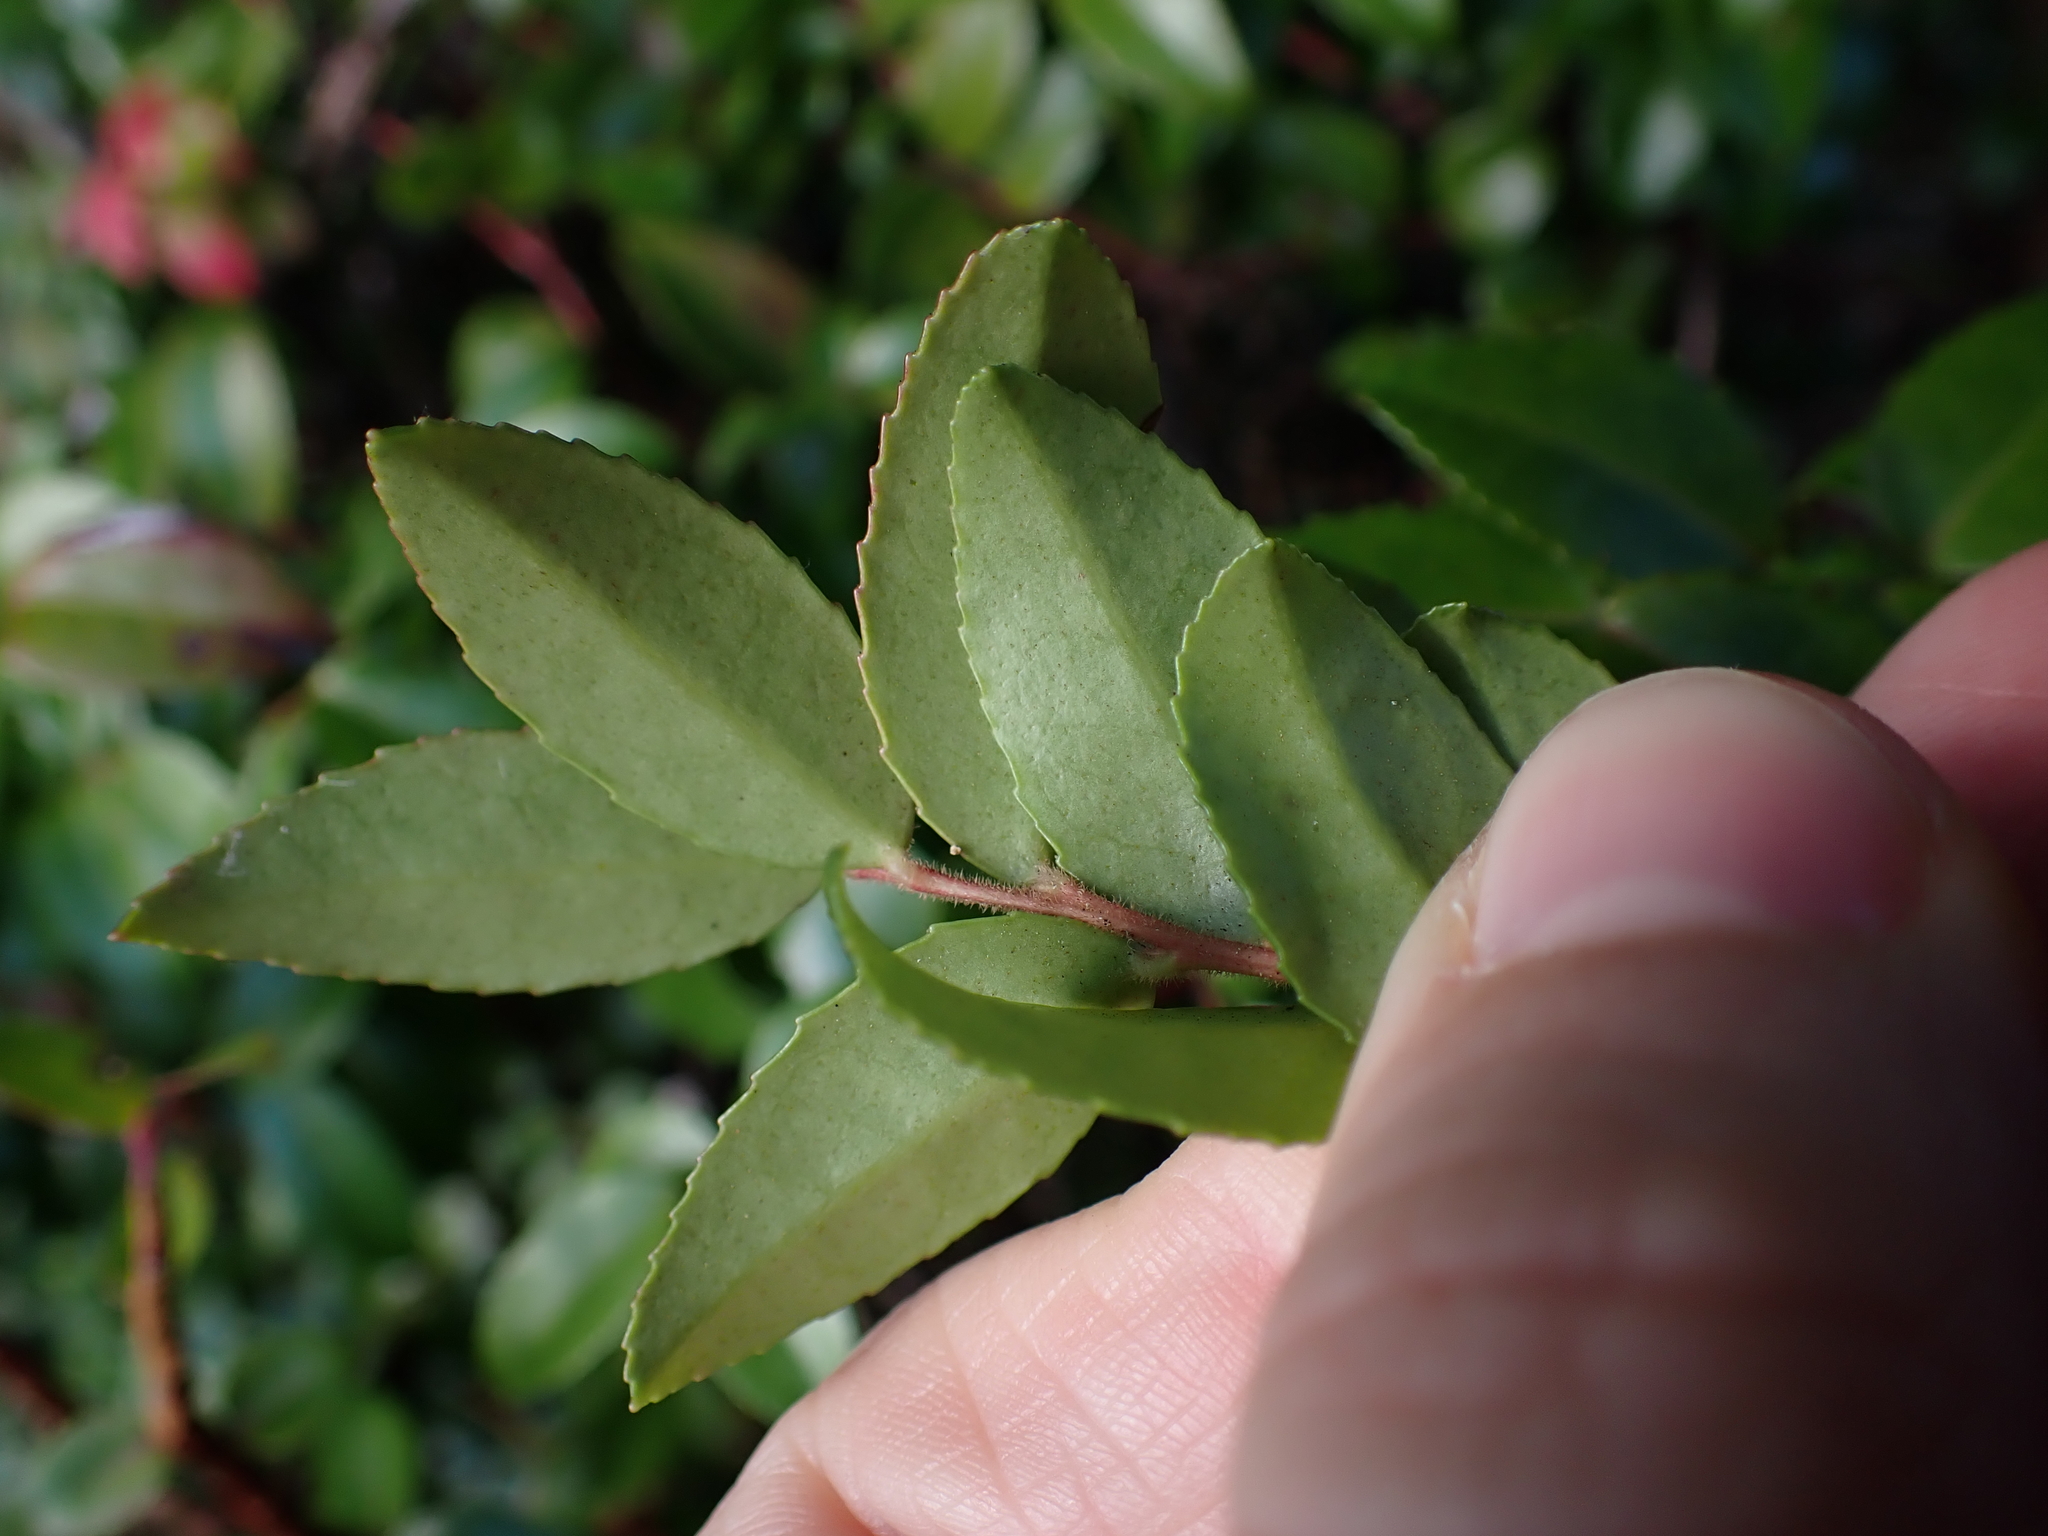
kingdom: Plantae
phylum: Tracheophyta
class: Magnoliopsida
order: Ericales
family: Ericaceae
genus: Vaccinium
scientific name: Vaccinium ovatum
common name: California-huckleberry
